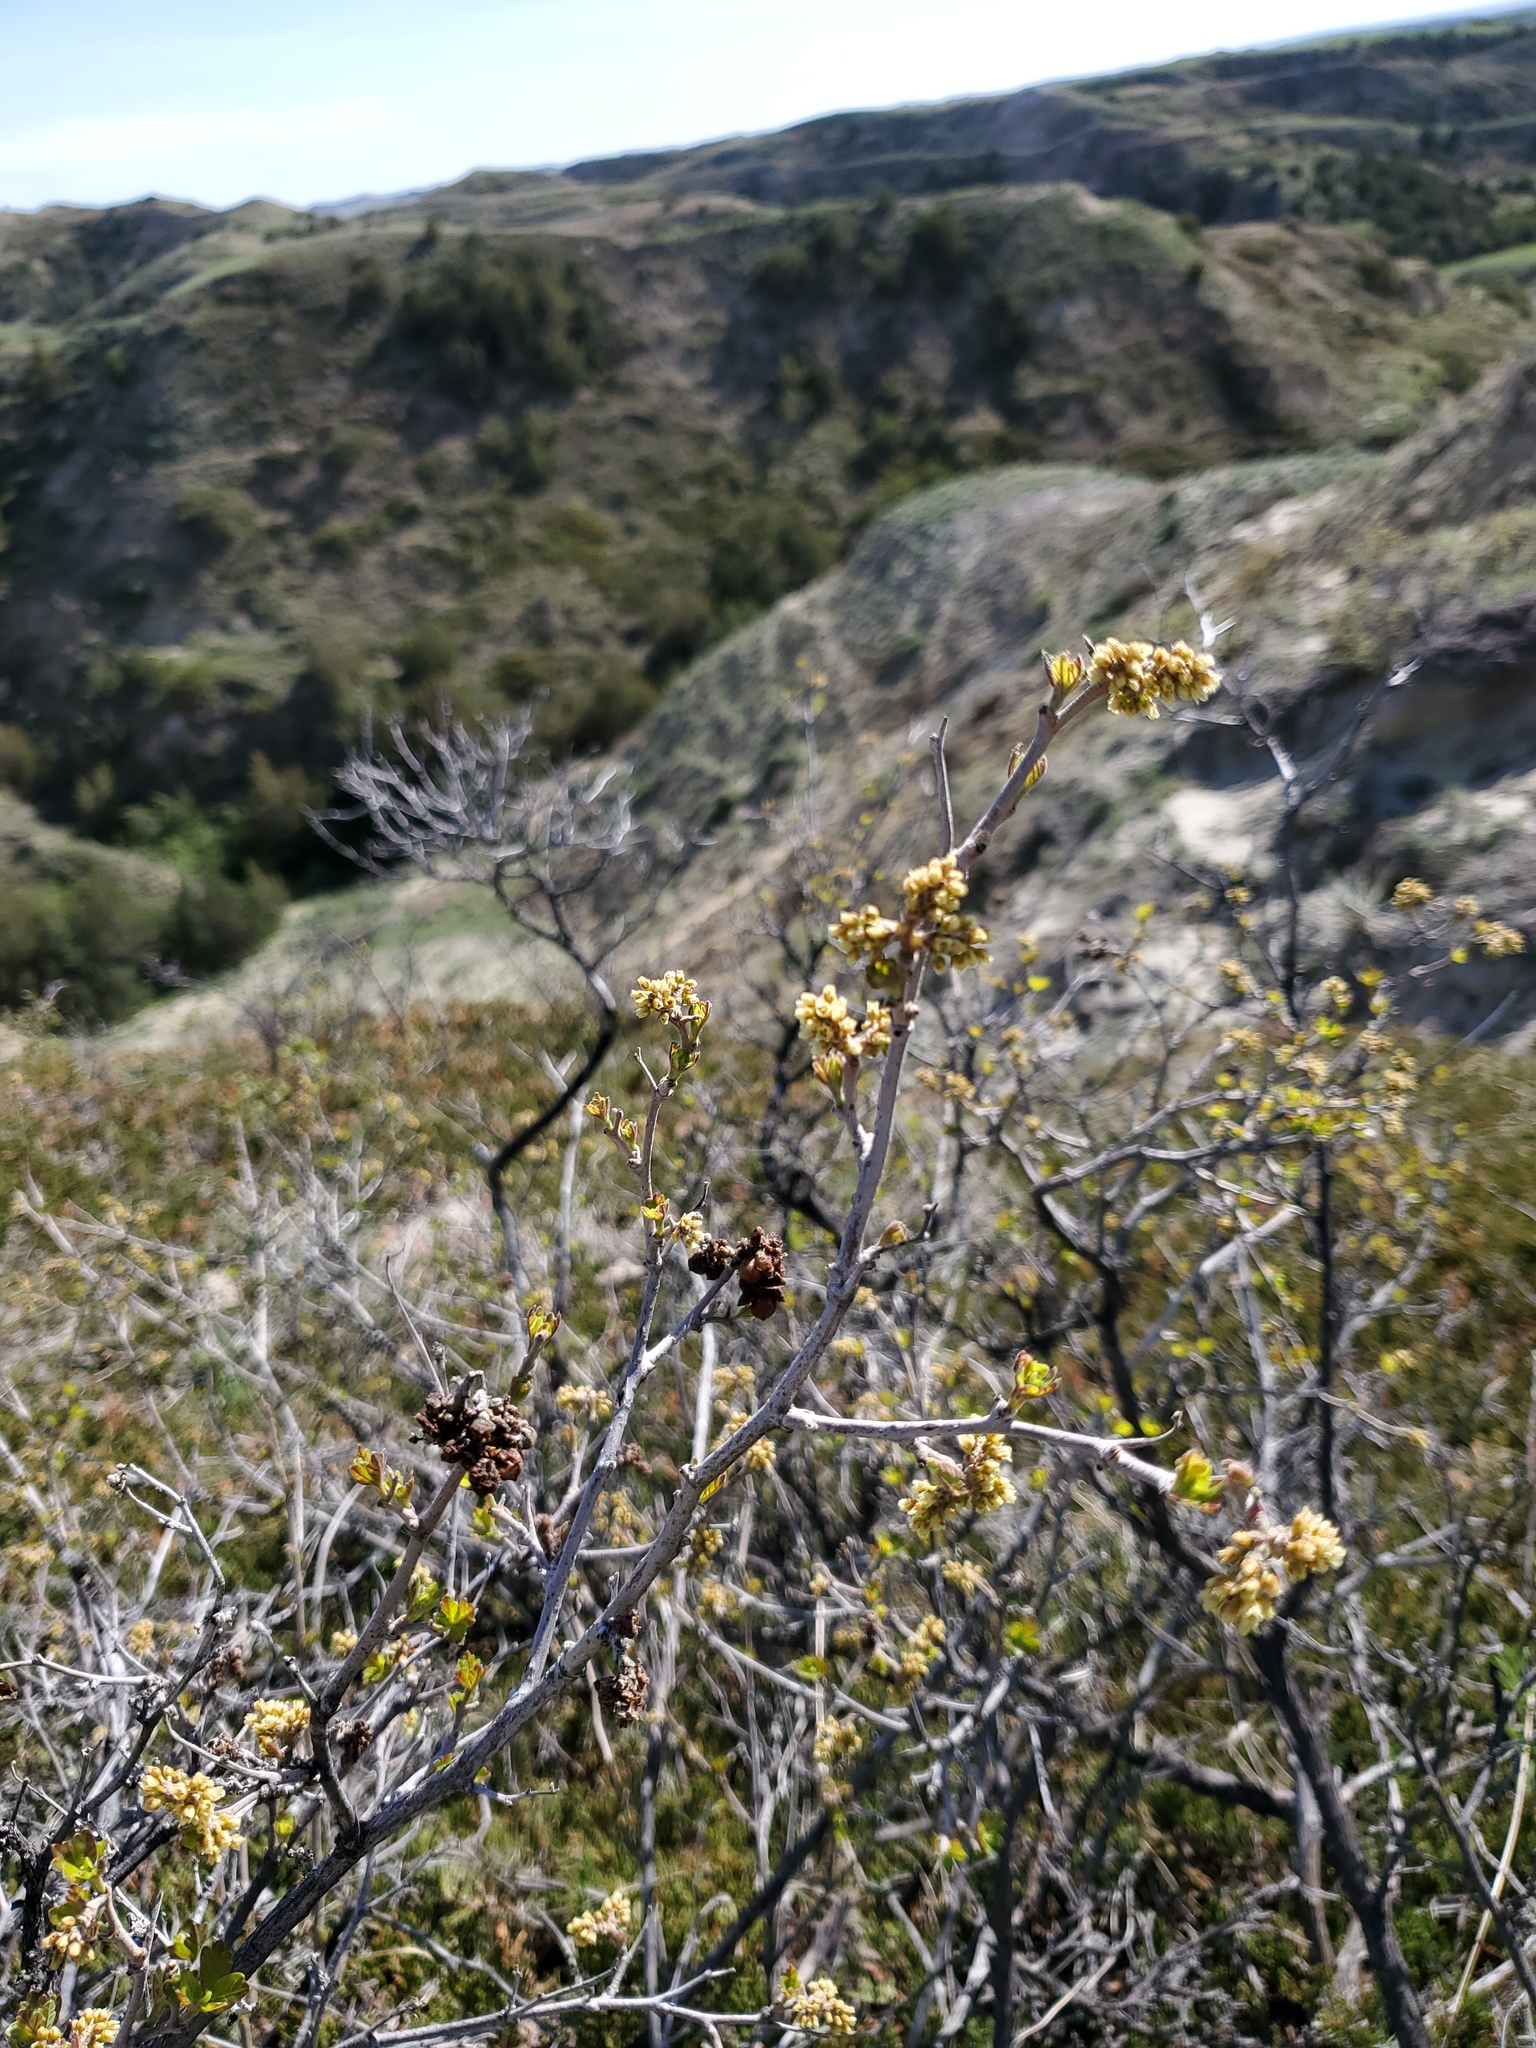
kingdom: Plantae
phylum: Tracheophyta
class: Magnoliopsida
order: Sapindales
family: Anacardiaceae
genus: Rhus
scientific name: Rhus aromatica
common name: Aromatic sumac
